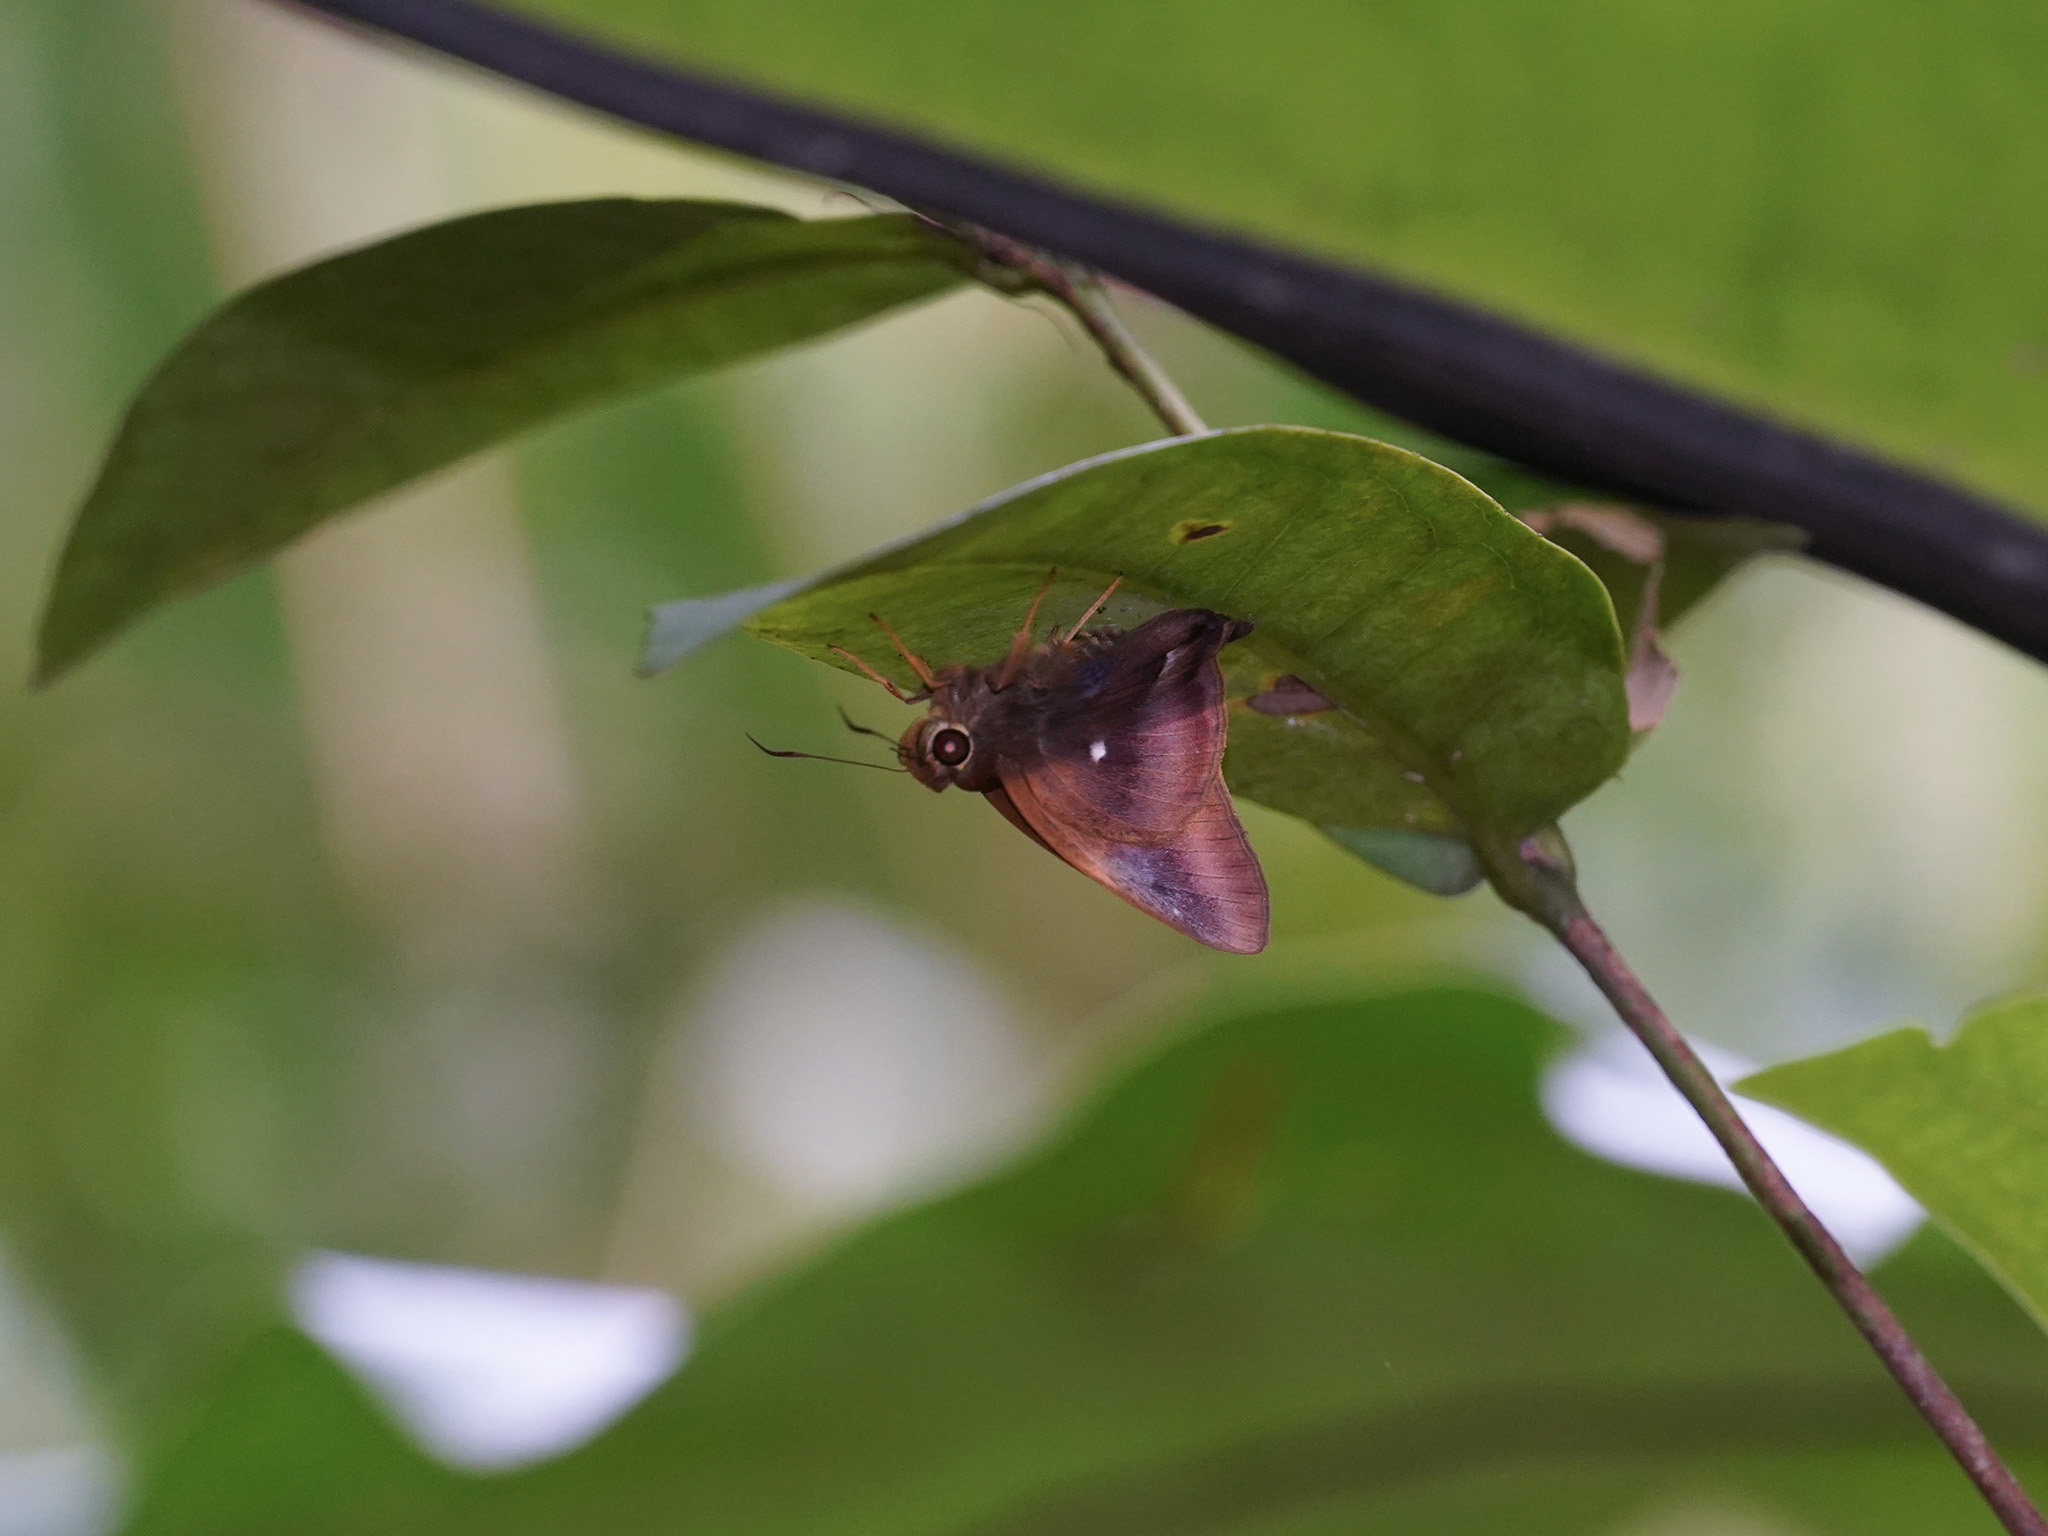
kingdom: Animalia
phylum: Arthropoda
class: Insecta
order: Lepidoptera
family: Hesperiidae
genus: Hasora
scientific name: Hasora badra
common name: Common awl
